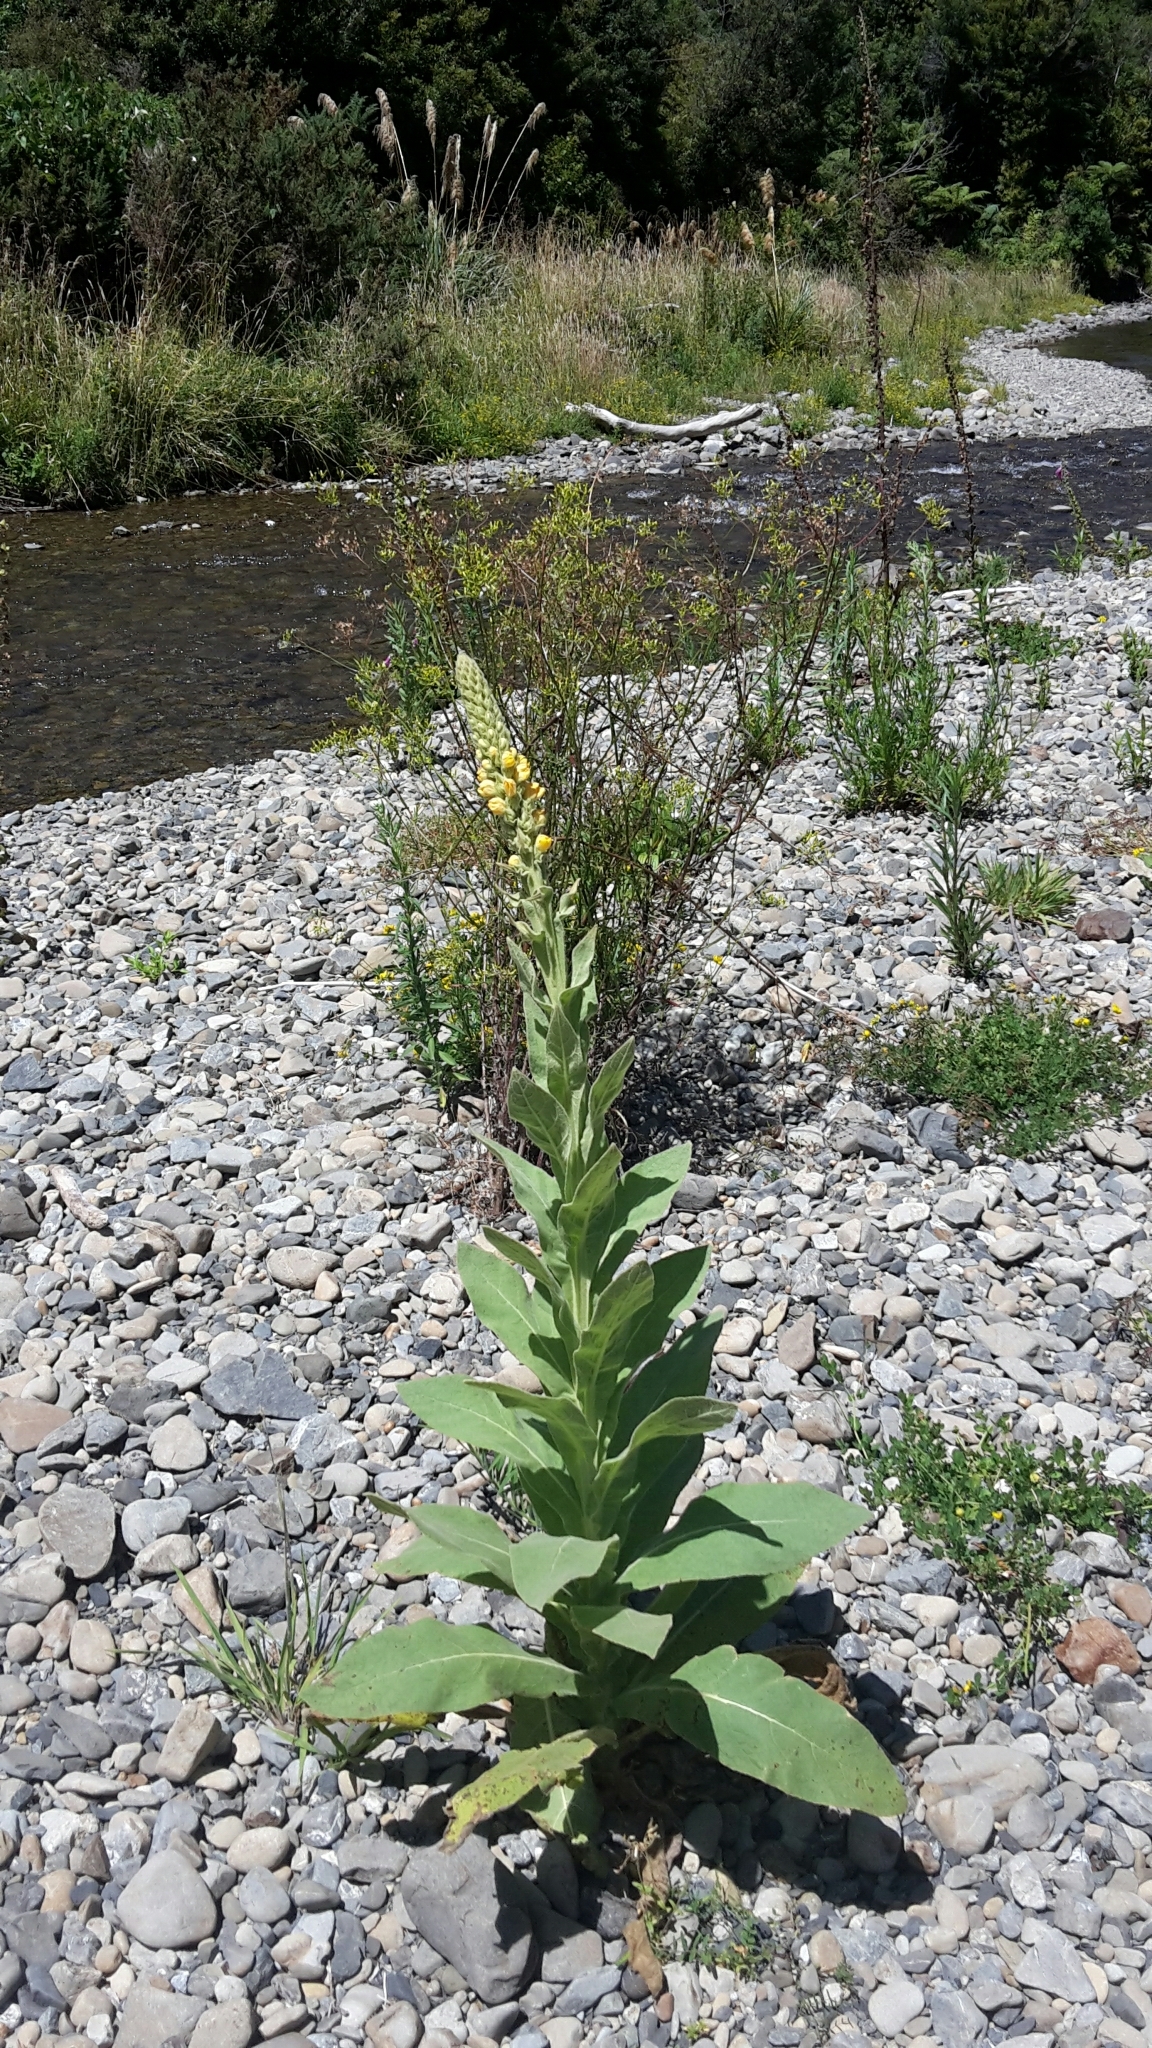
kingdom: Plantae
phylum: Tracheophyta
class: Magnoliopsida
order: Lamiales
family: Scrophulariaceae
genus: Verbascum
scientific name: Verbascum thapsus
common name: Common mullein
